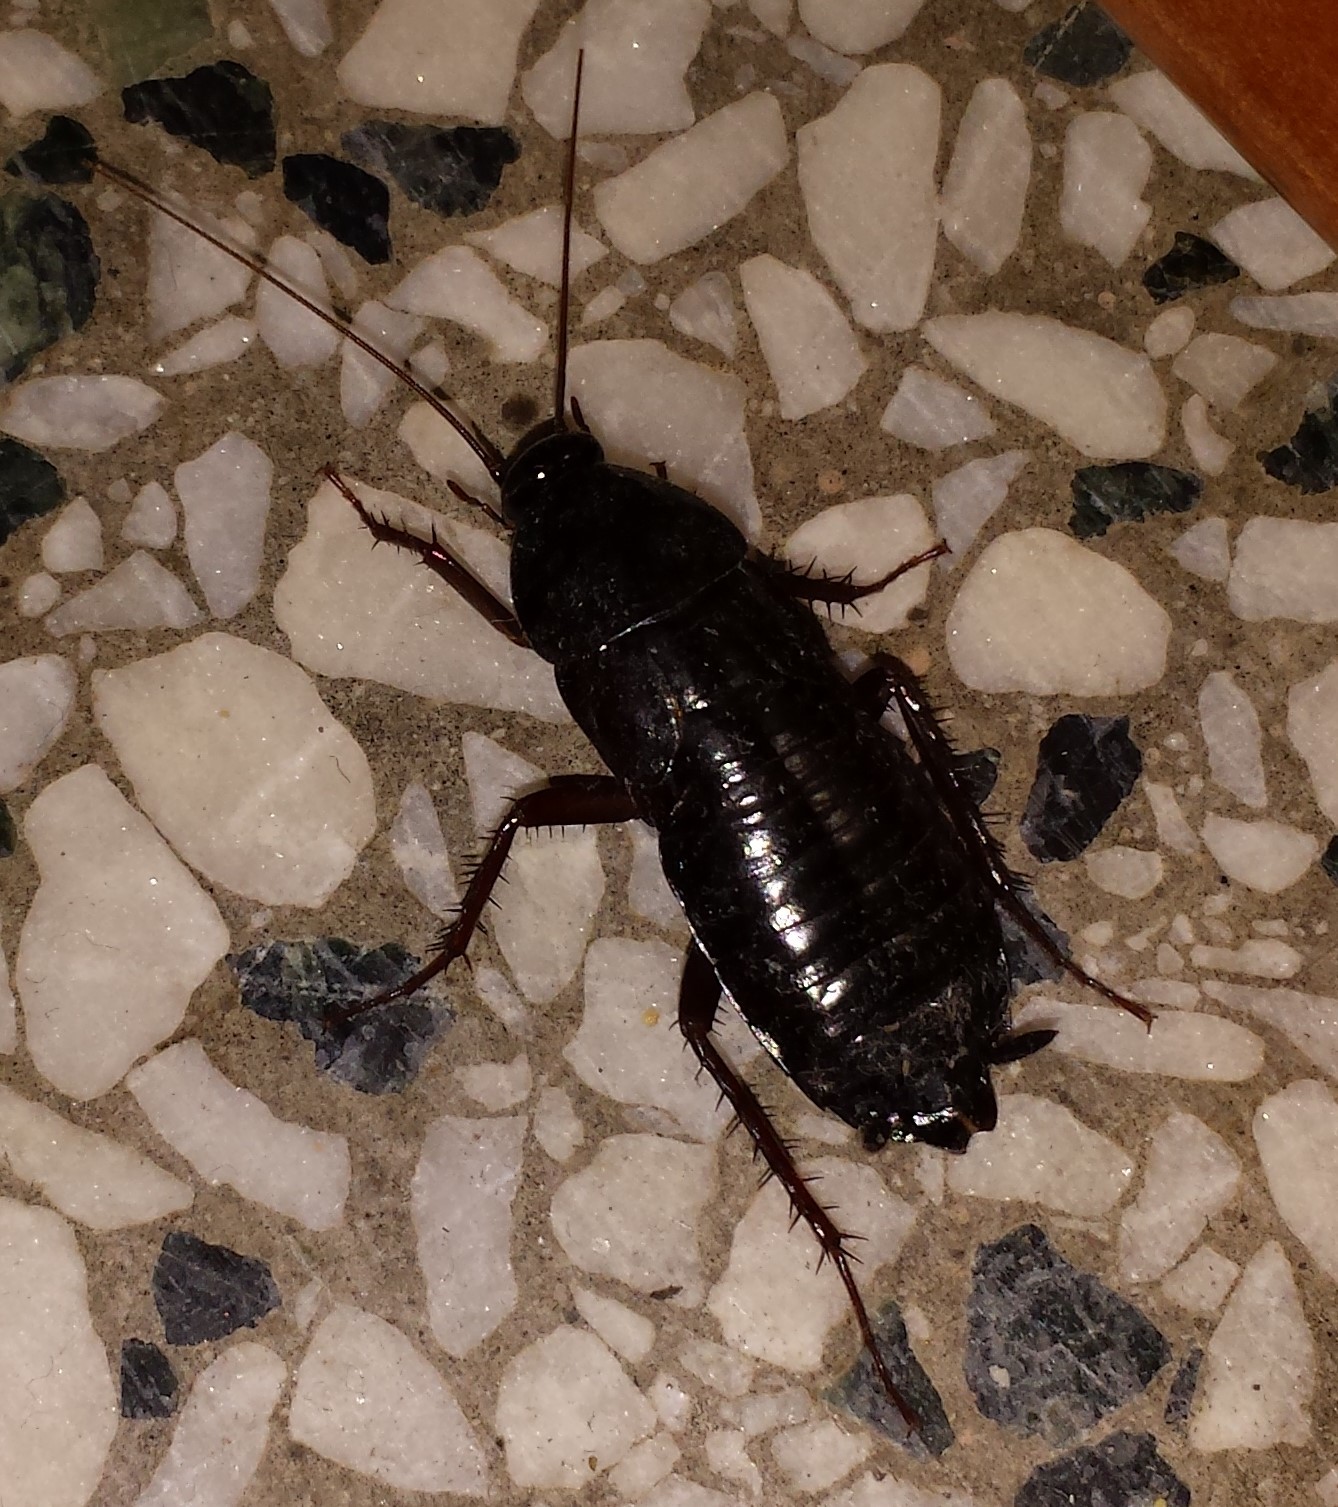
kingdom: Animalia
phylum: Arthropoda
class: Insecta
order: Blattodea
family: Blattidae
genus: Blatta
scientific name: Blatta orientalis
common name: Oriental cockroach
